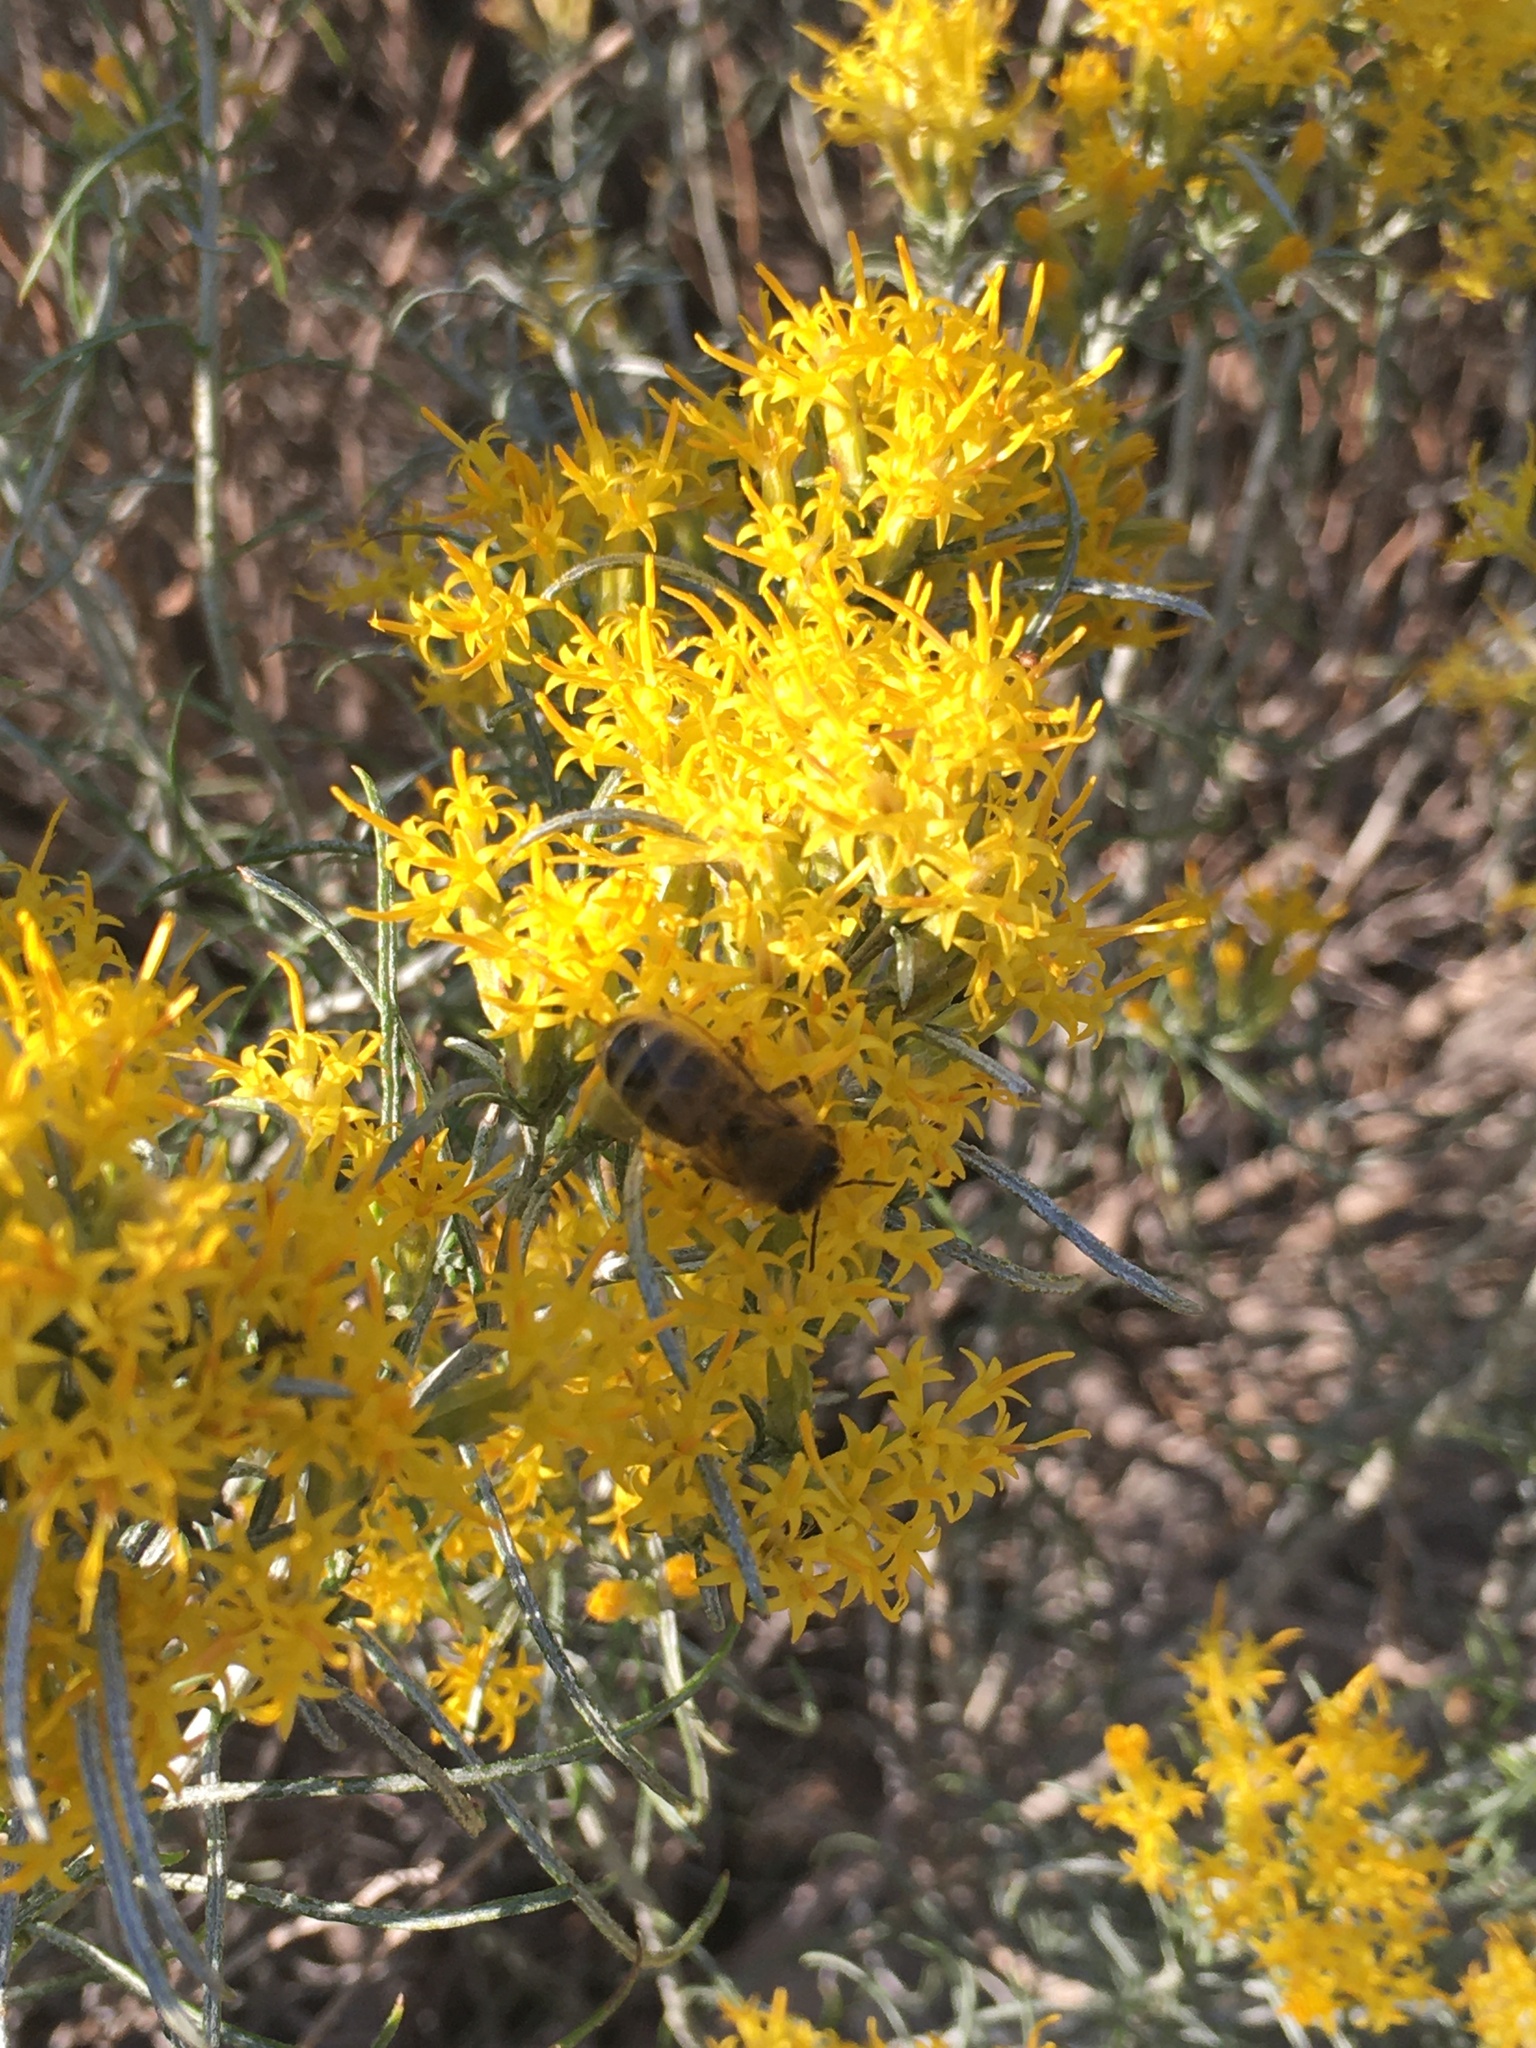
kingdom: Animalia
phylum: Arthropoda
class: Insecta
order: Hymenoptera
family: Apidae
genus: Apis
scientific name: Apis mellifera
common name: Honey bee
